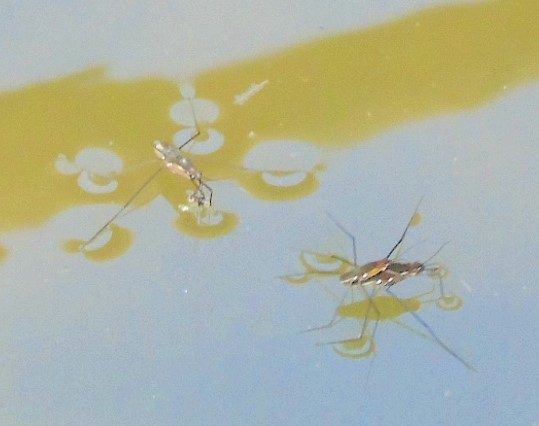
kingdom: Animalia
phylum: Arthropoda
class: Insecta
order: Hemiptera
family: Gerridae
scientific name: Gerridae
